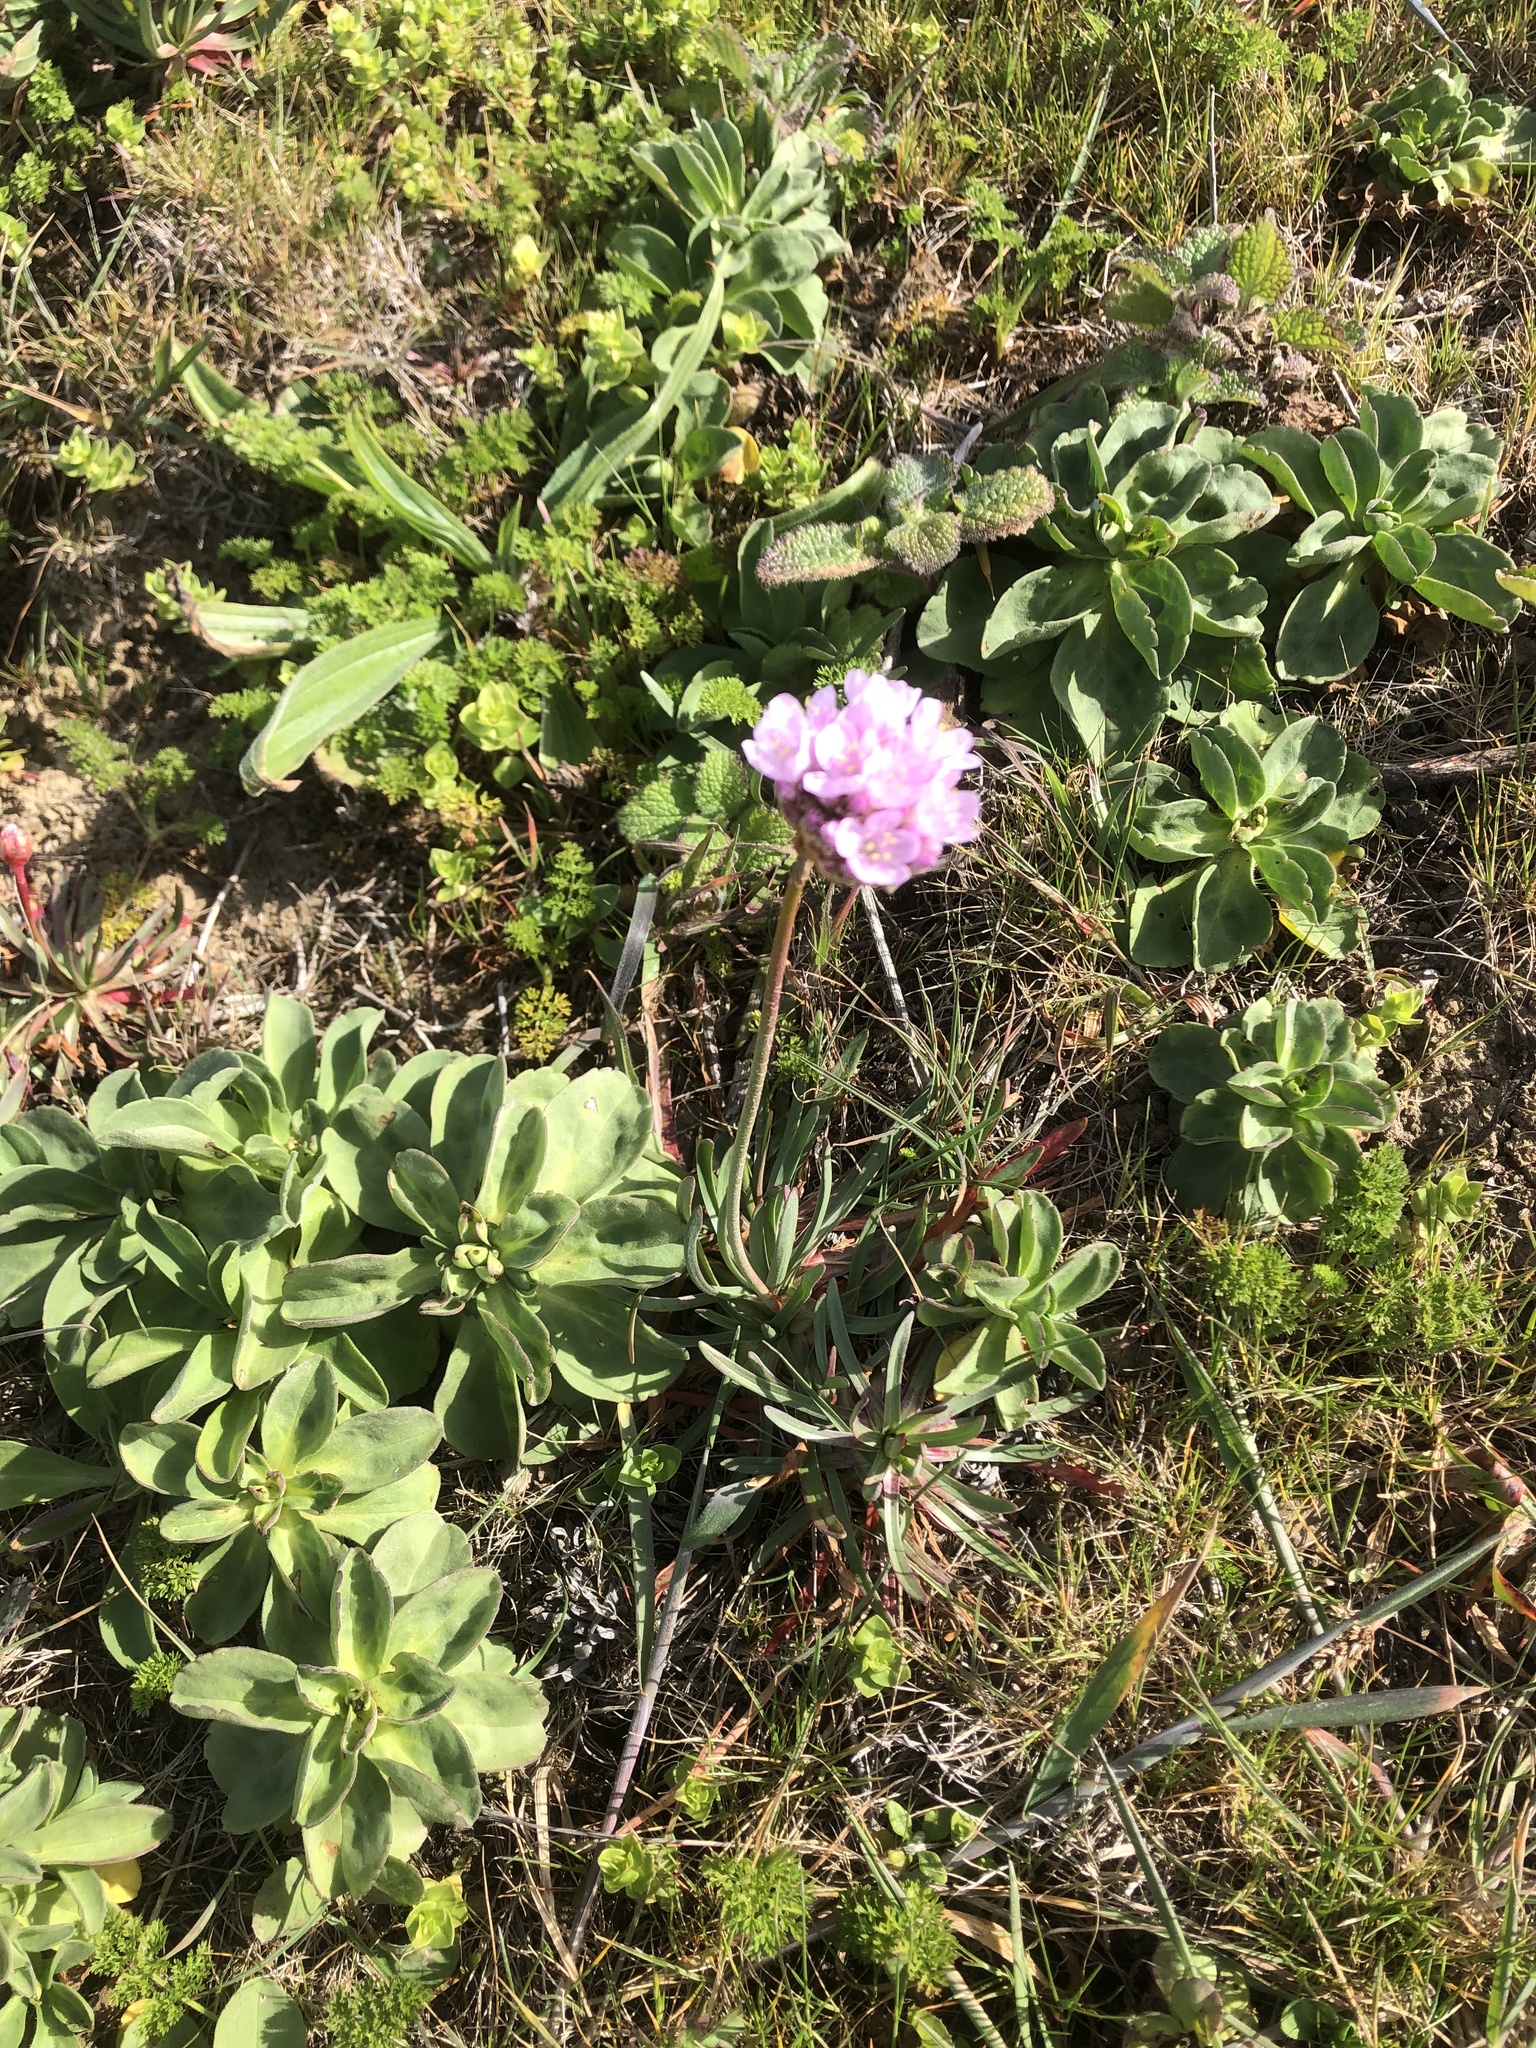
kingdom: Plantae
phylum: Tracheophyta
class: Magnoliopsida
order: Caryophyllales
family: Plumbaginaceae
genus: Armeria
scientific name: Armeria maritima
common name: Thrift
